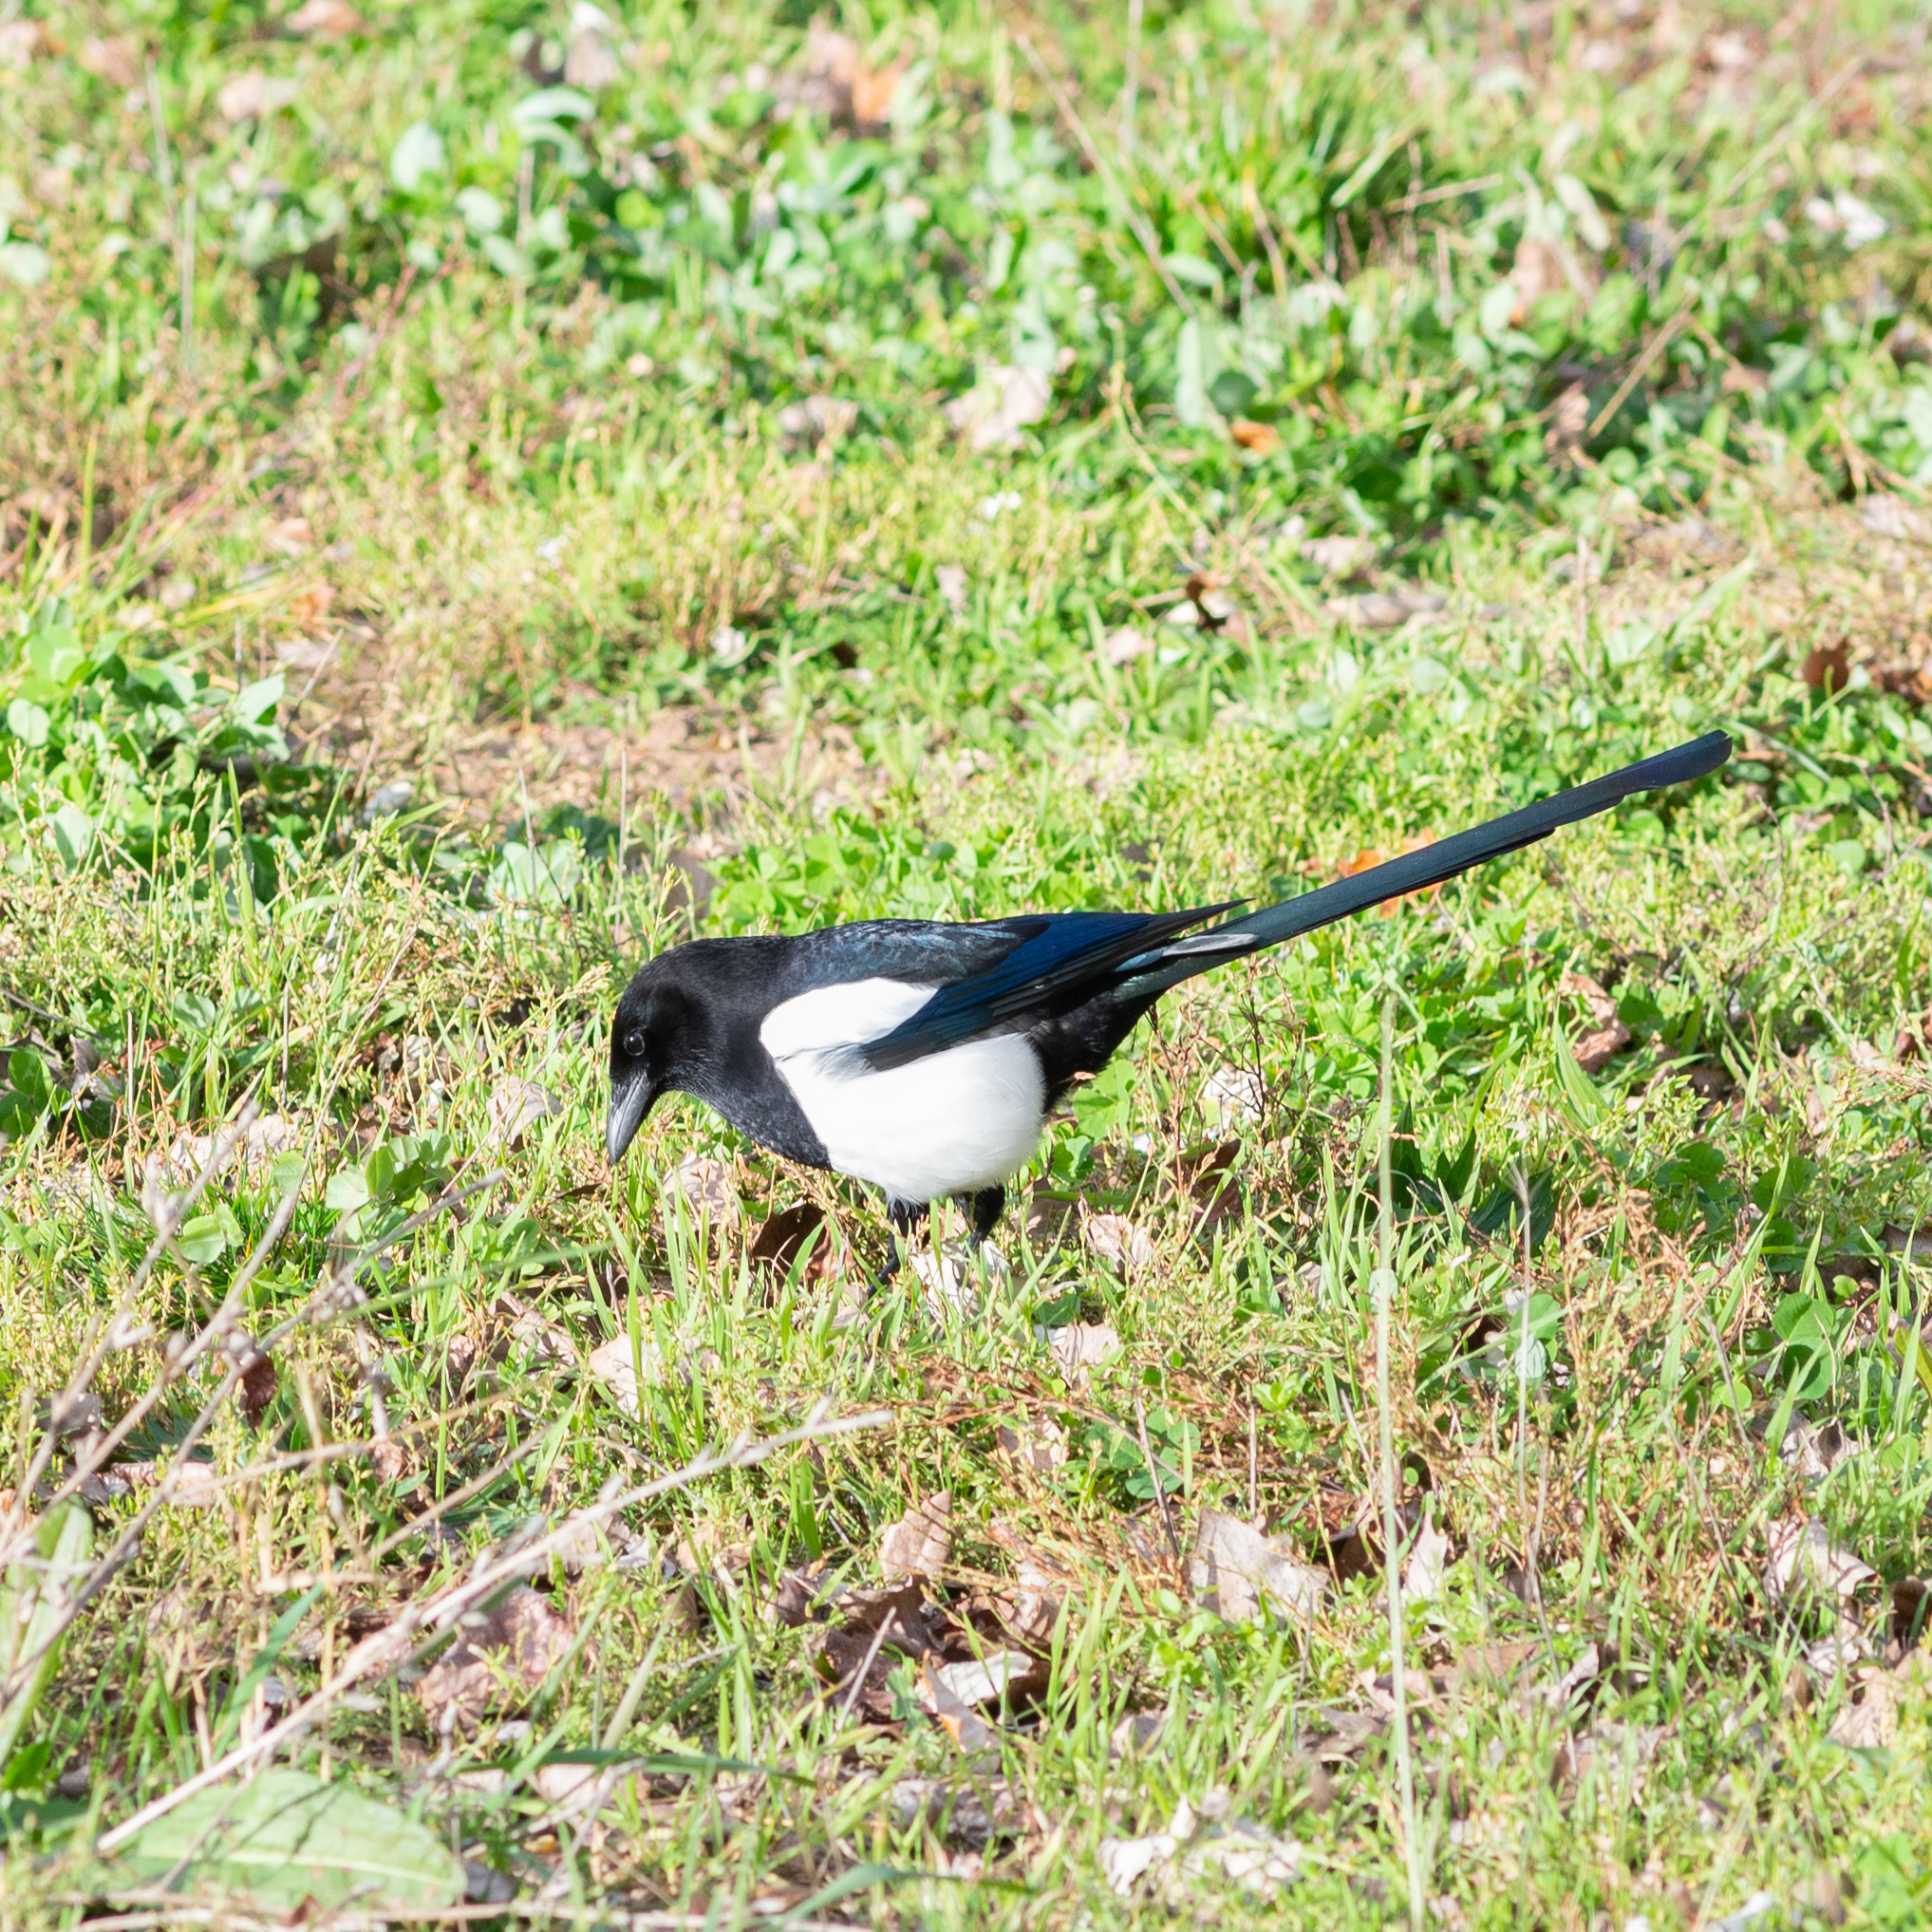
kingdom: Animalia
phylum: Chordata
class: Aves
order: Passeriformes
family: Corvidae
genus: Pica
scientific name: Pica pica
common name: Eurasian magpie
